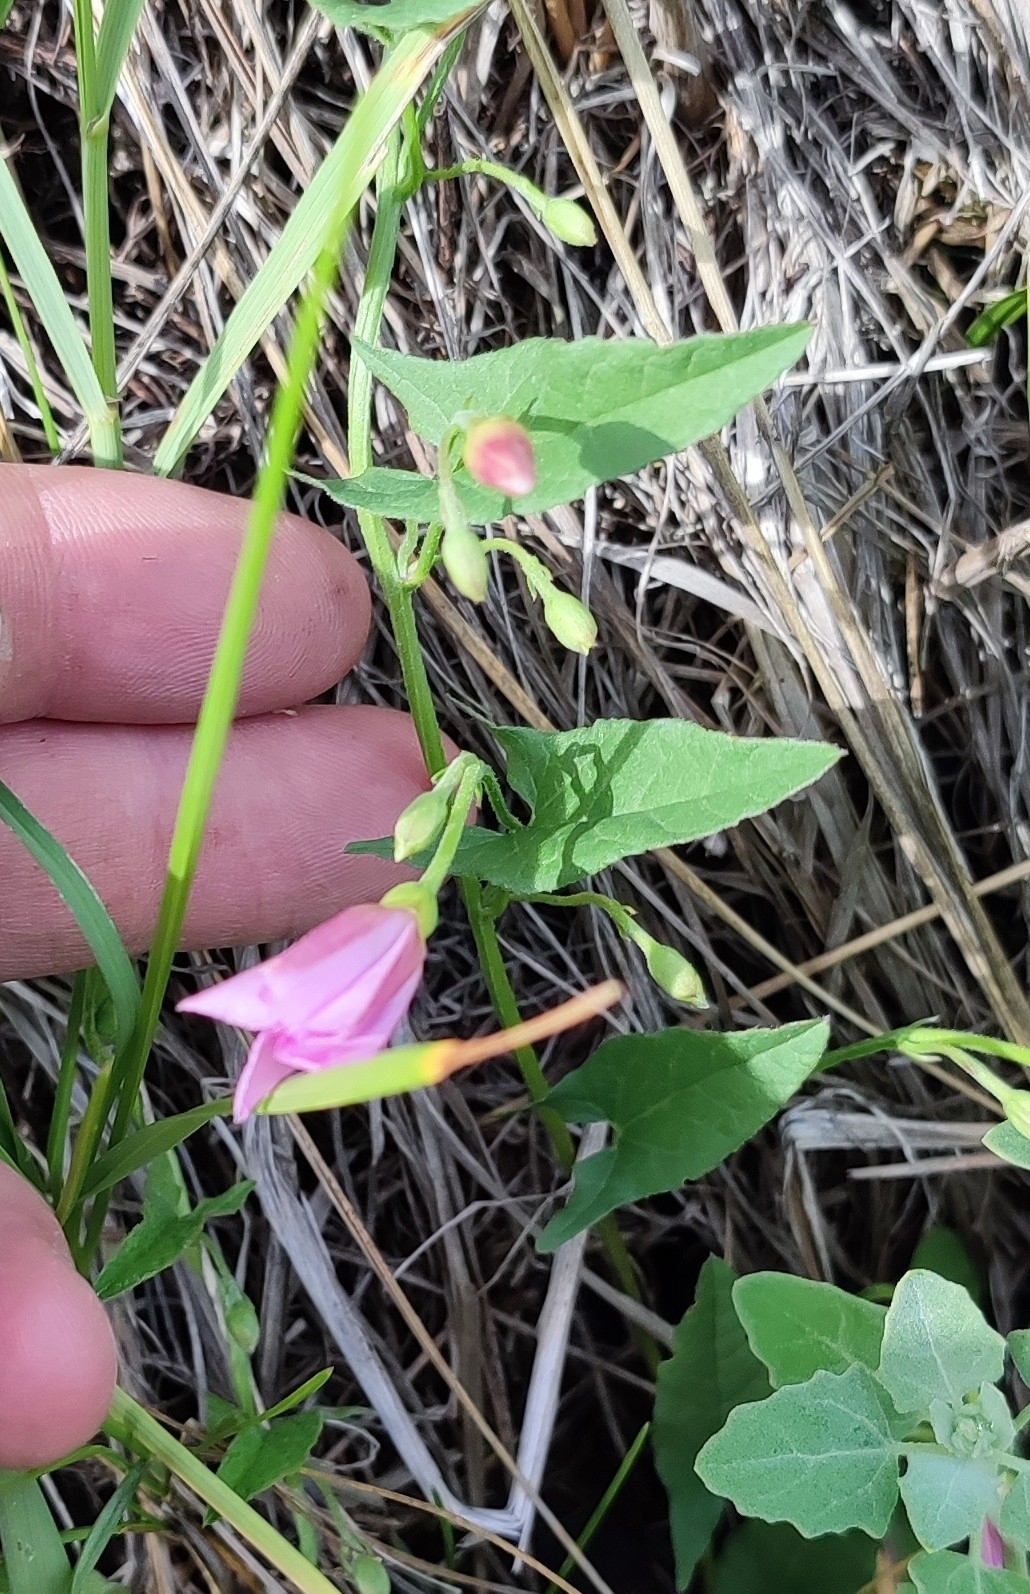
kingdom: Plantae
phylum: Tracheophyta
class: Magnoliopsida
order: Solanales
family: Convolvulaceae
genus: Convolvulus
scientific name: Convolvulus arvensis
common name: Field bindweed
